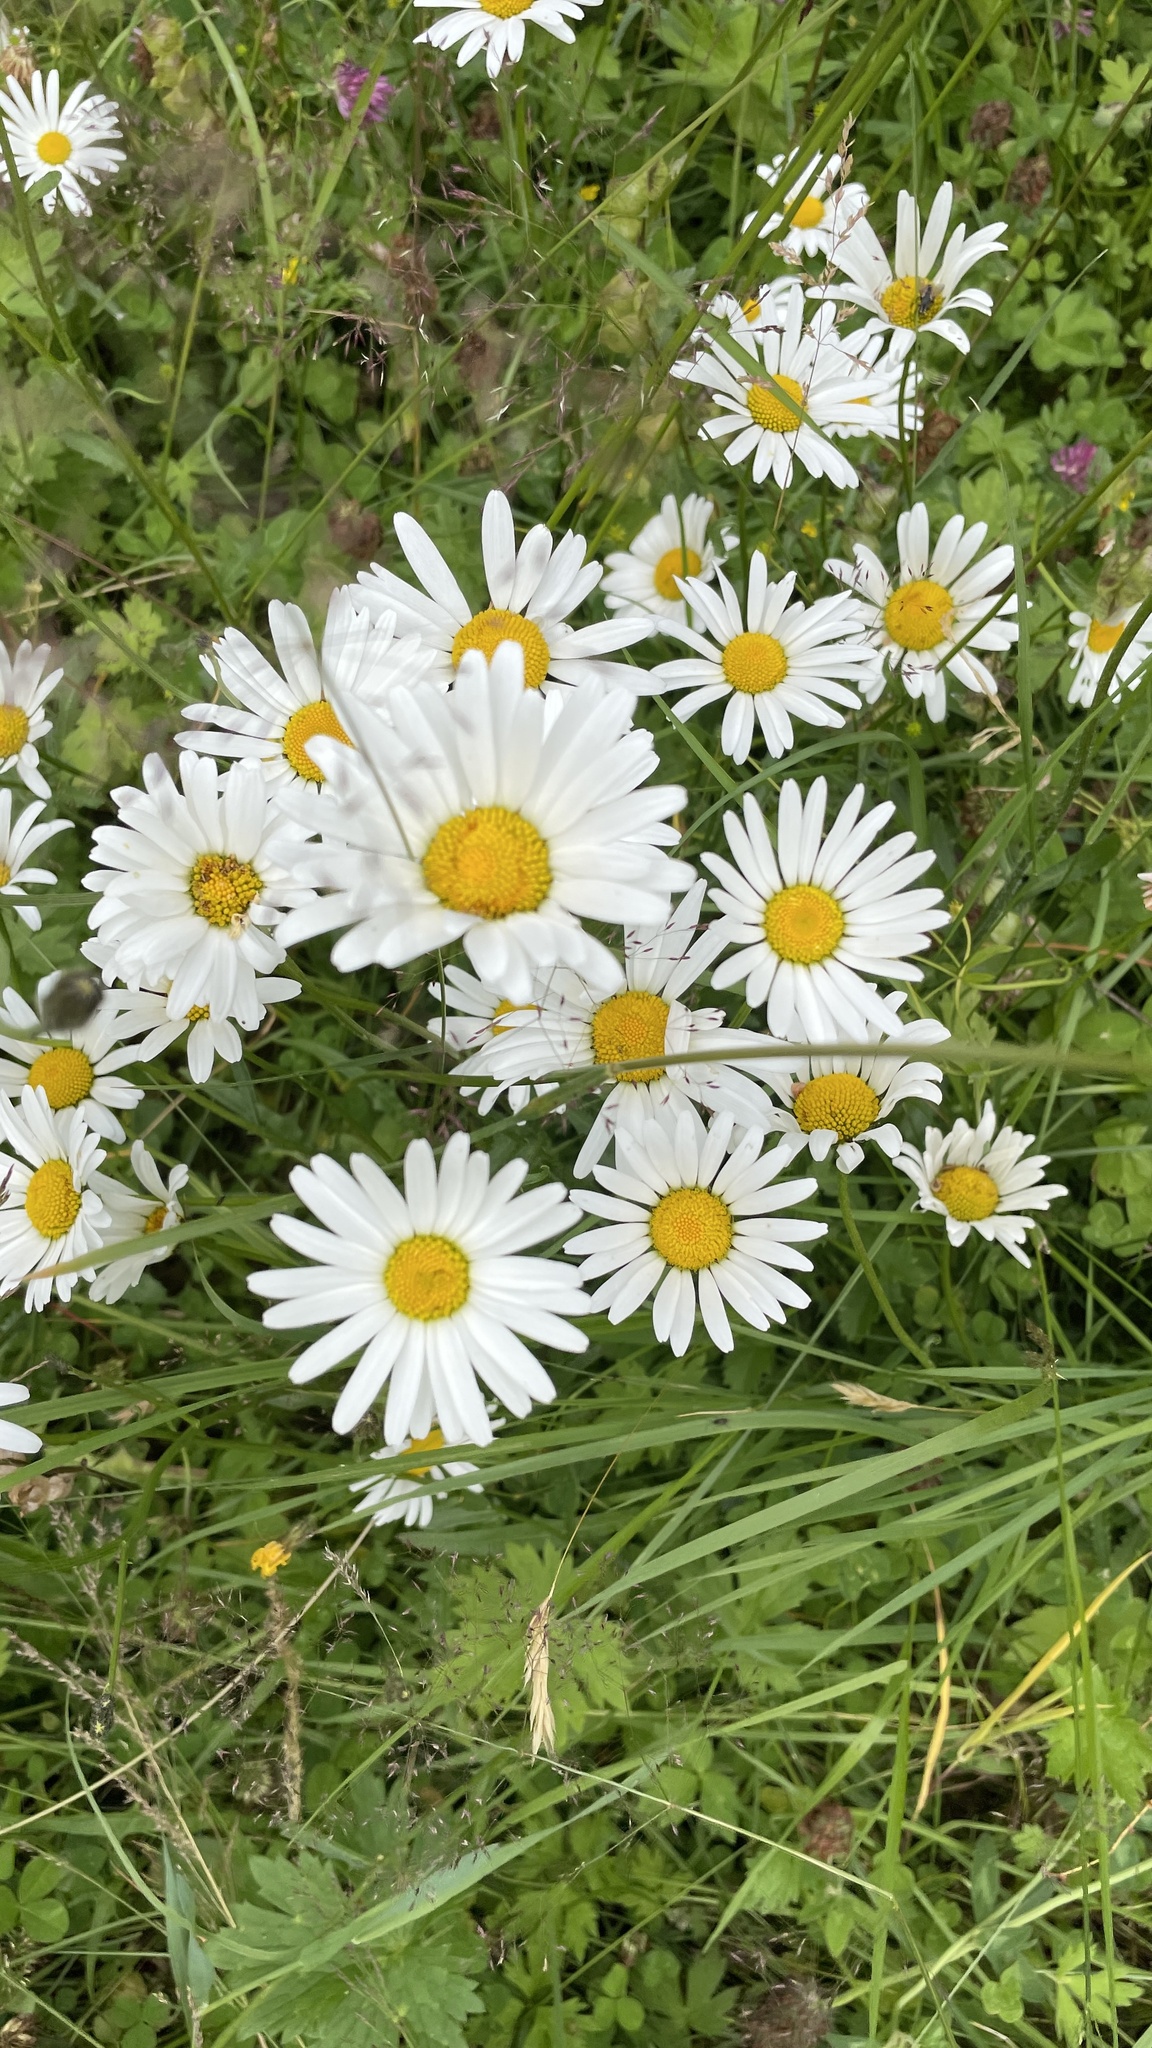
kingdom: Plantae
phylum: Tracheophyta
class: Magnoliopsida
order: Asterales
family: Asteraceae
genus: Leucanthemum
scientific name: Leucanthemum vulgare
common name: Oxeye daisy
